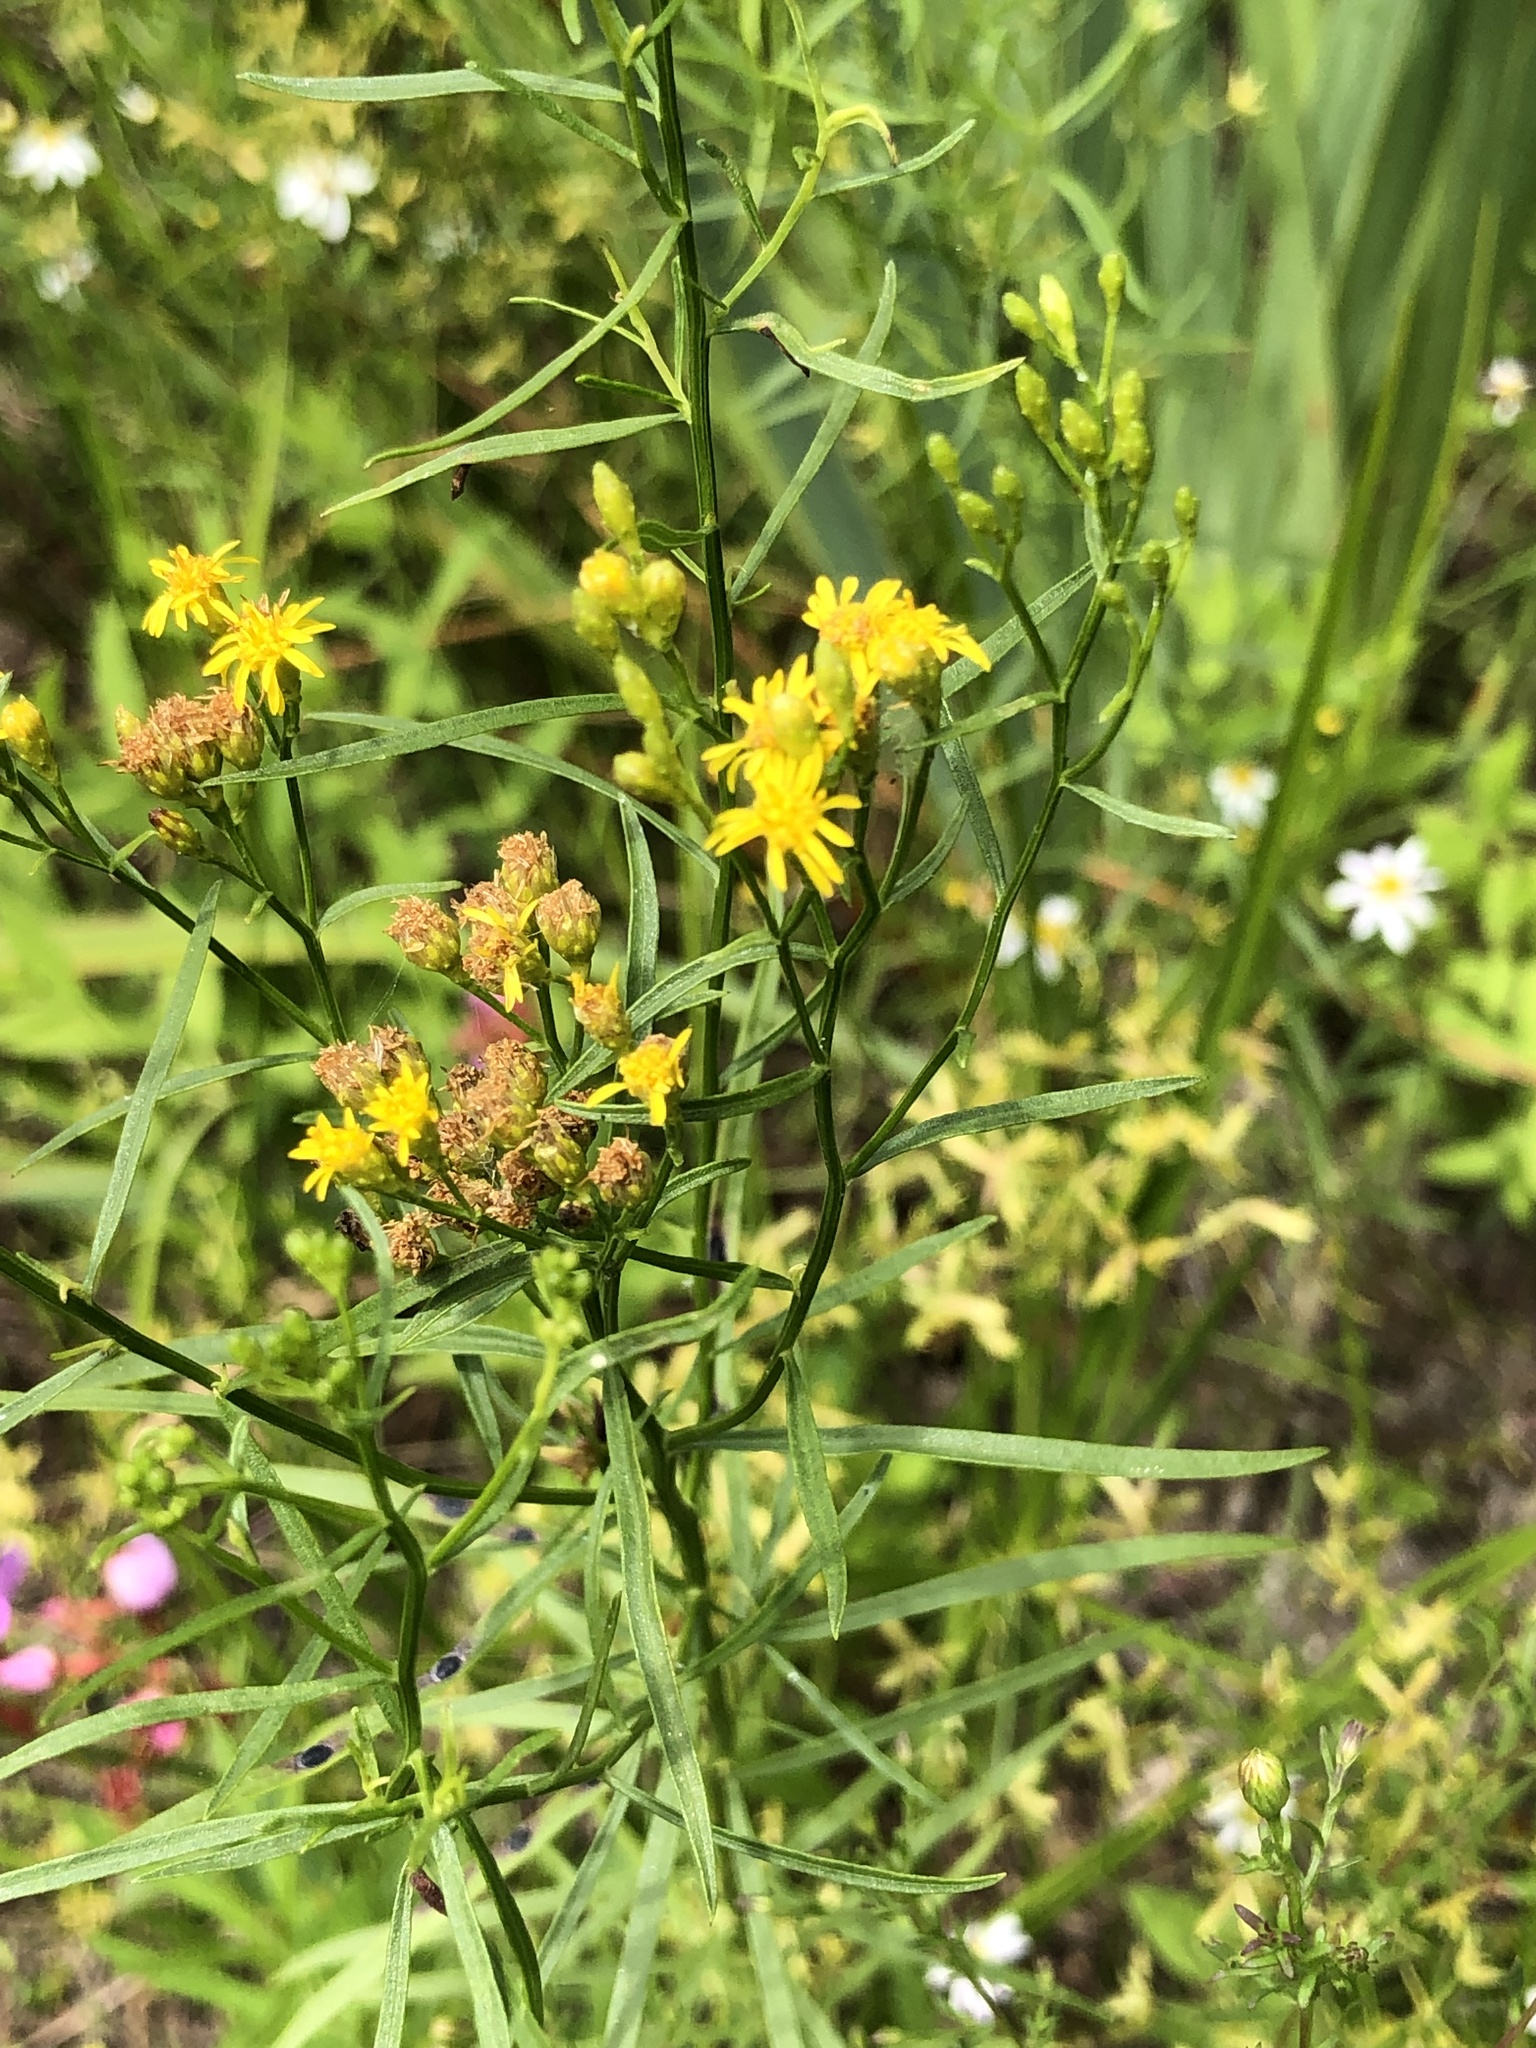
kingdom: Plantae
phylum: Tracheophyta
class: Magnoliopsida
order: Asterales
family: Asteraceae
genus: Euthamia
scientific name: Euthamia graminifolia
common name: Common goldentop
